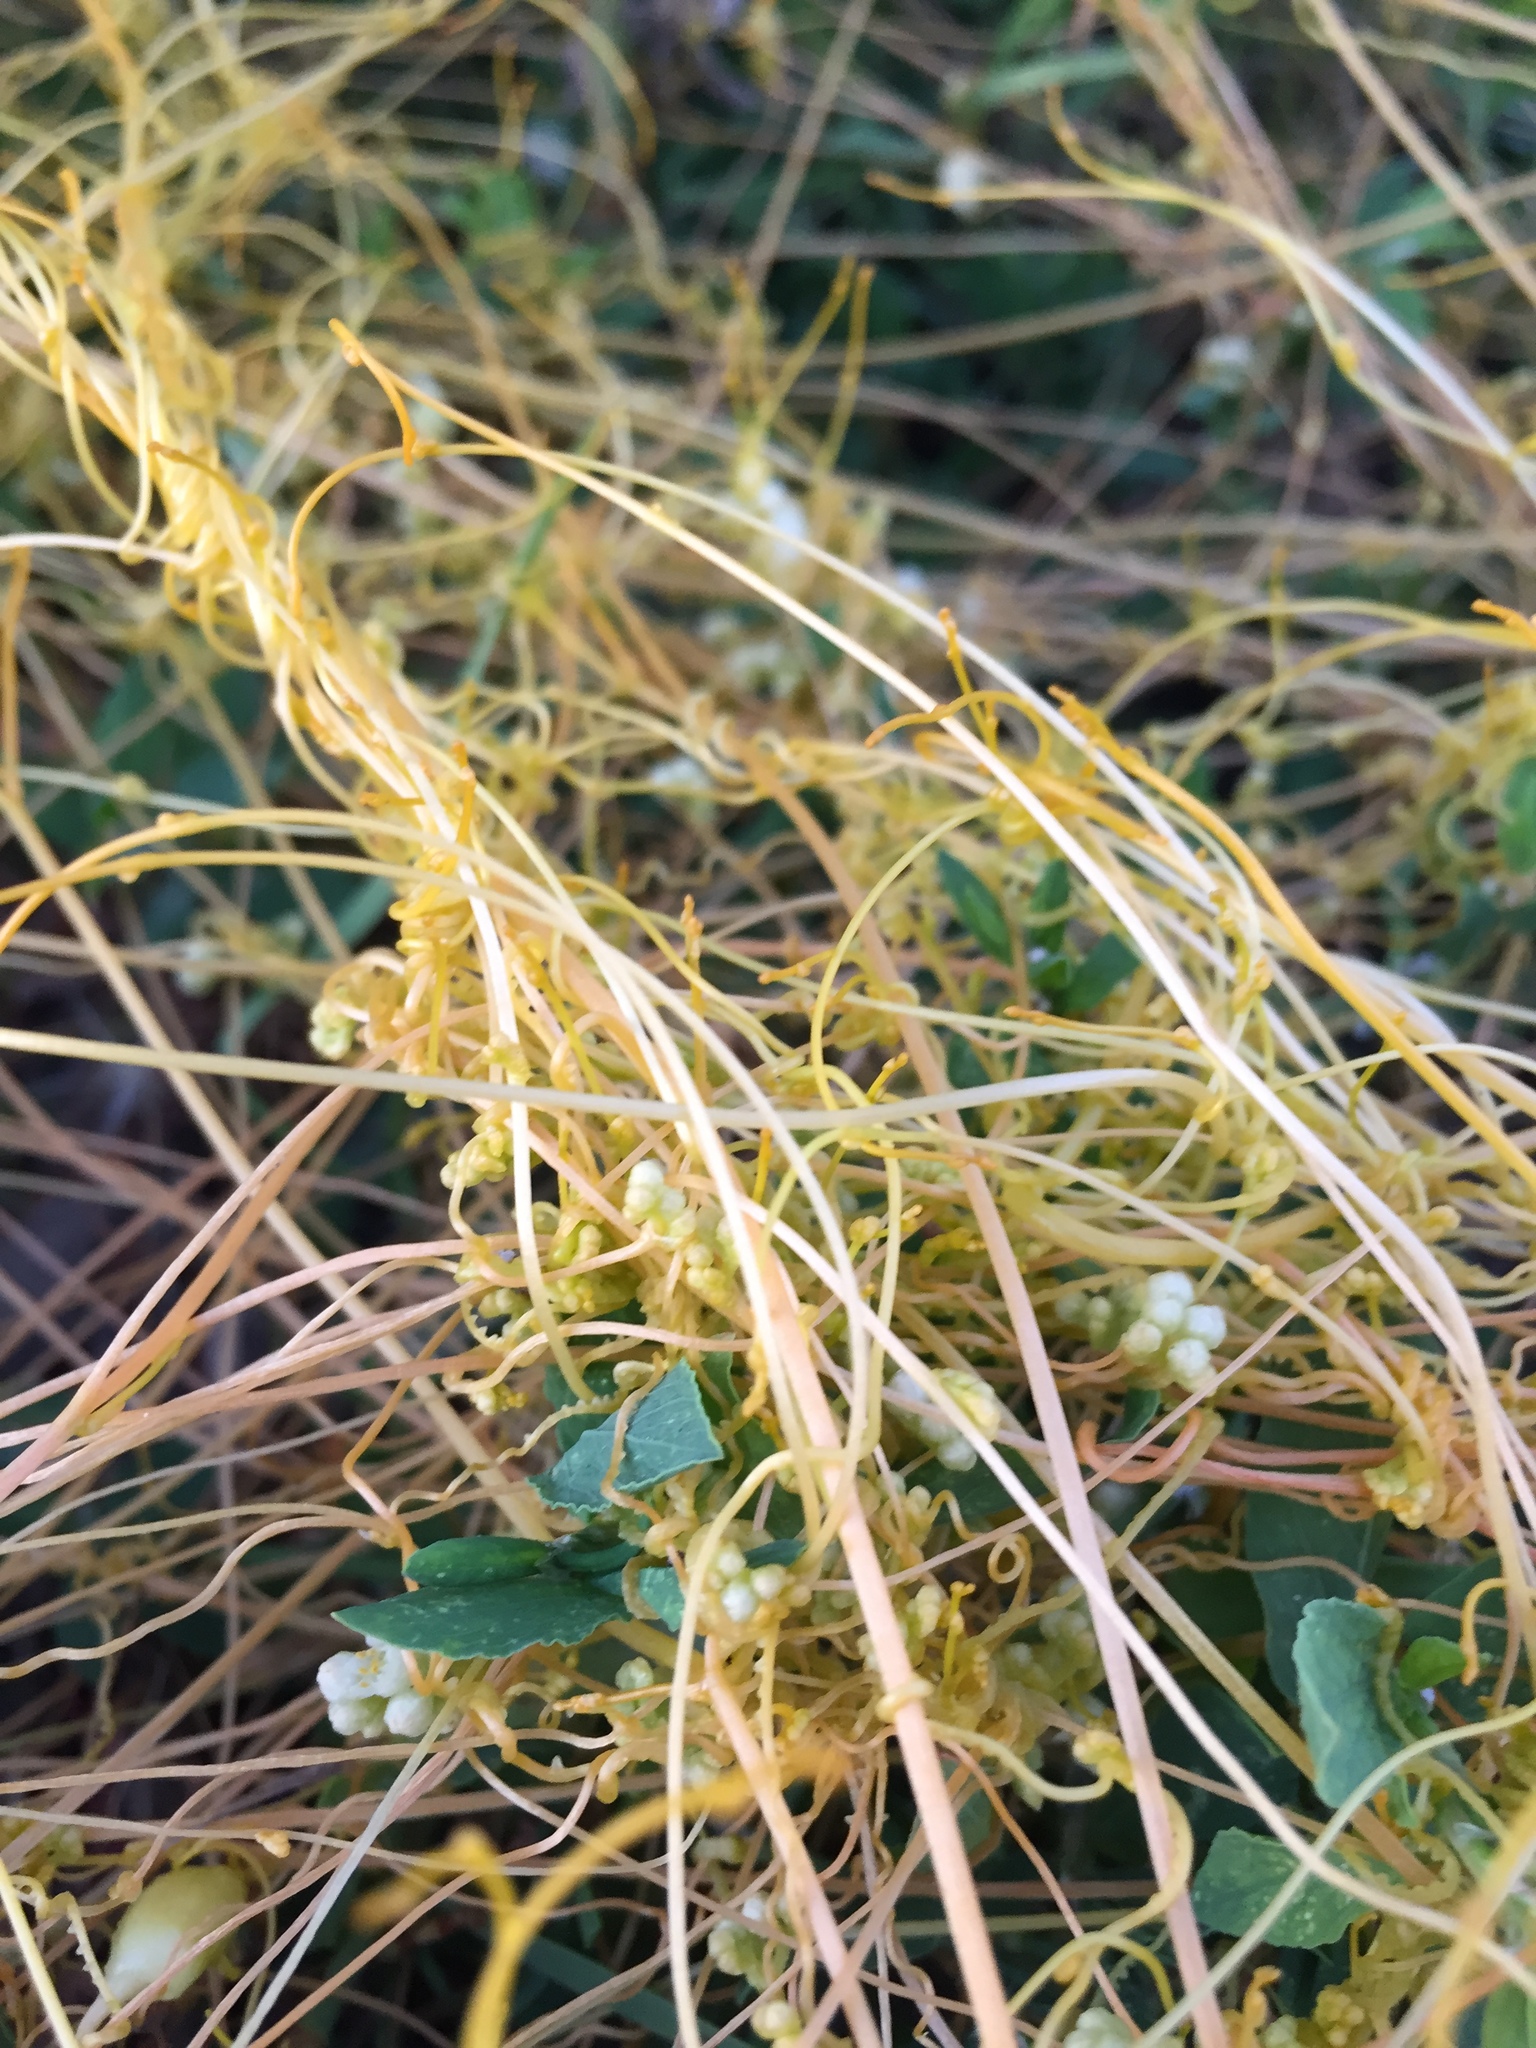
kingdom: Plantae
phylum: Tracheophyta
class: Magnoliopsida
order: Solanales
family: Convolvulaceae
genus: Cuscuta
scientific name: Cuscuta campestris
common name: Yellow dodder
